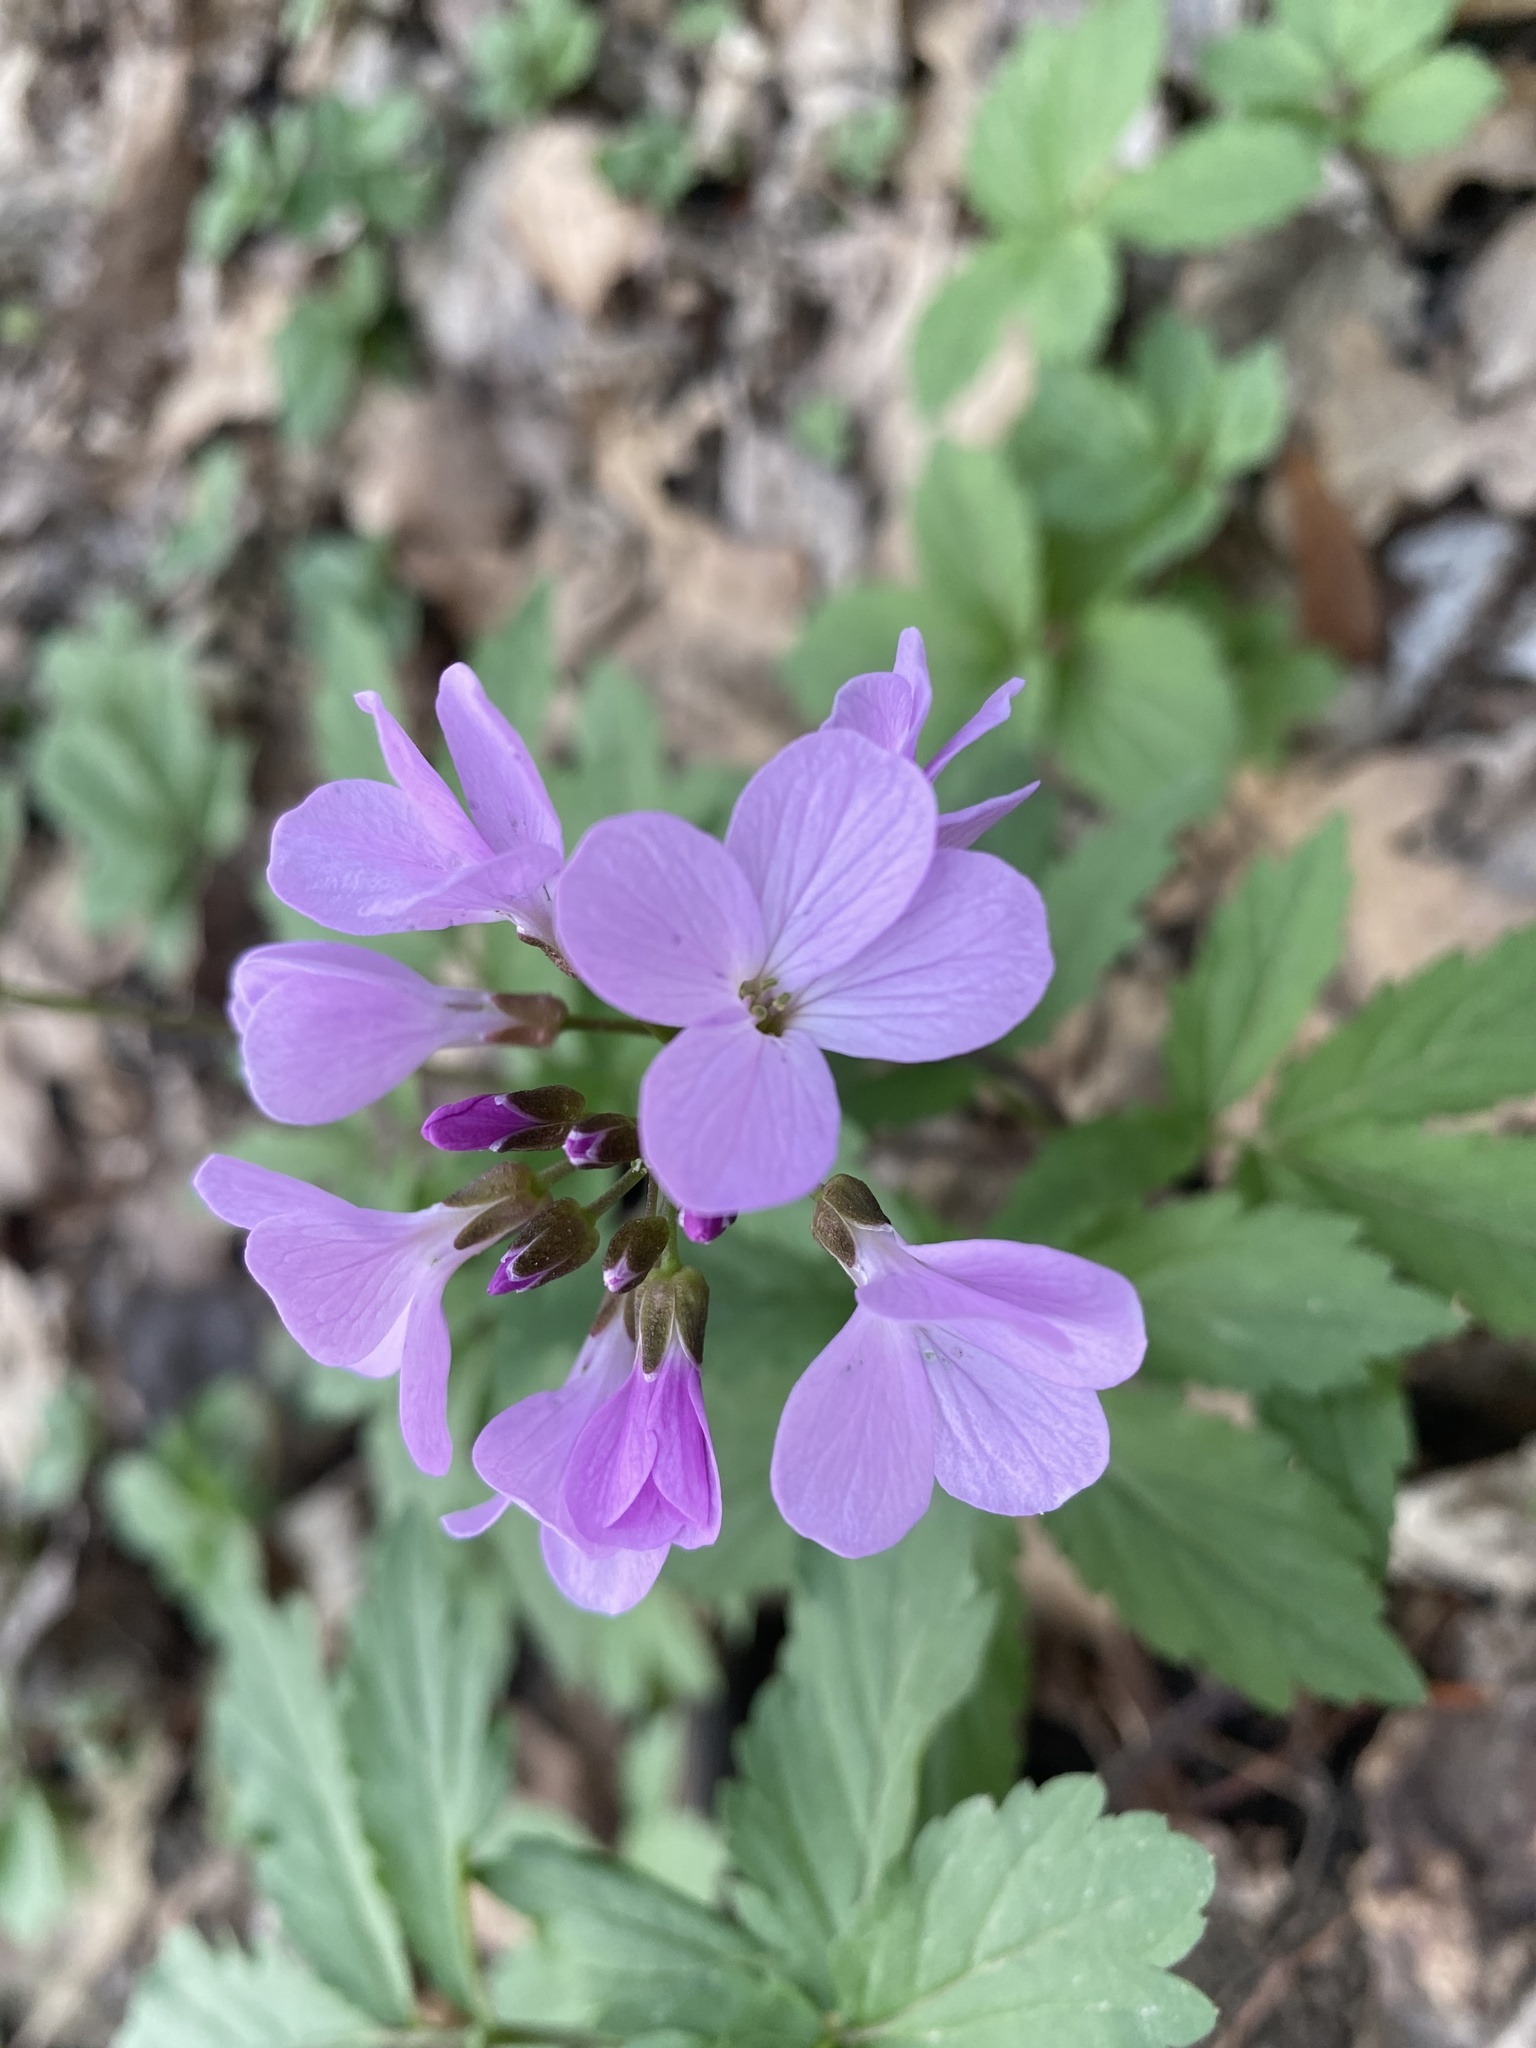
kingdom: Plantae
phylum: Tracheophyta
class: Magnoliopsida
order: Brassicales
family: Brassicaceae
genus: Cardamine
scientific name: Cardamine quinquefolia
